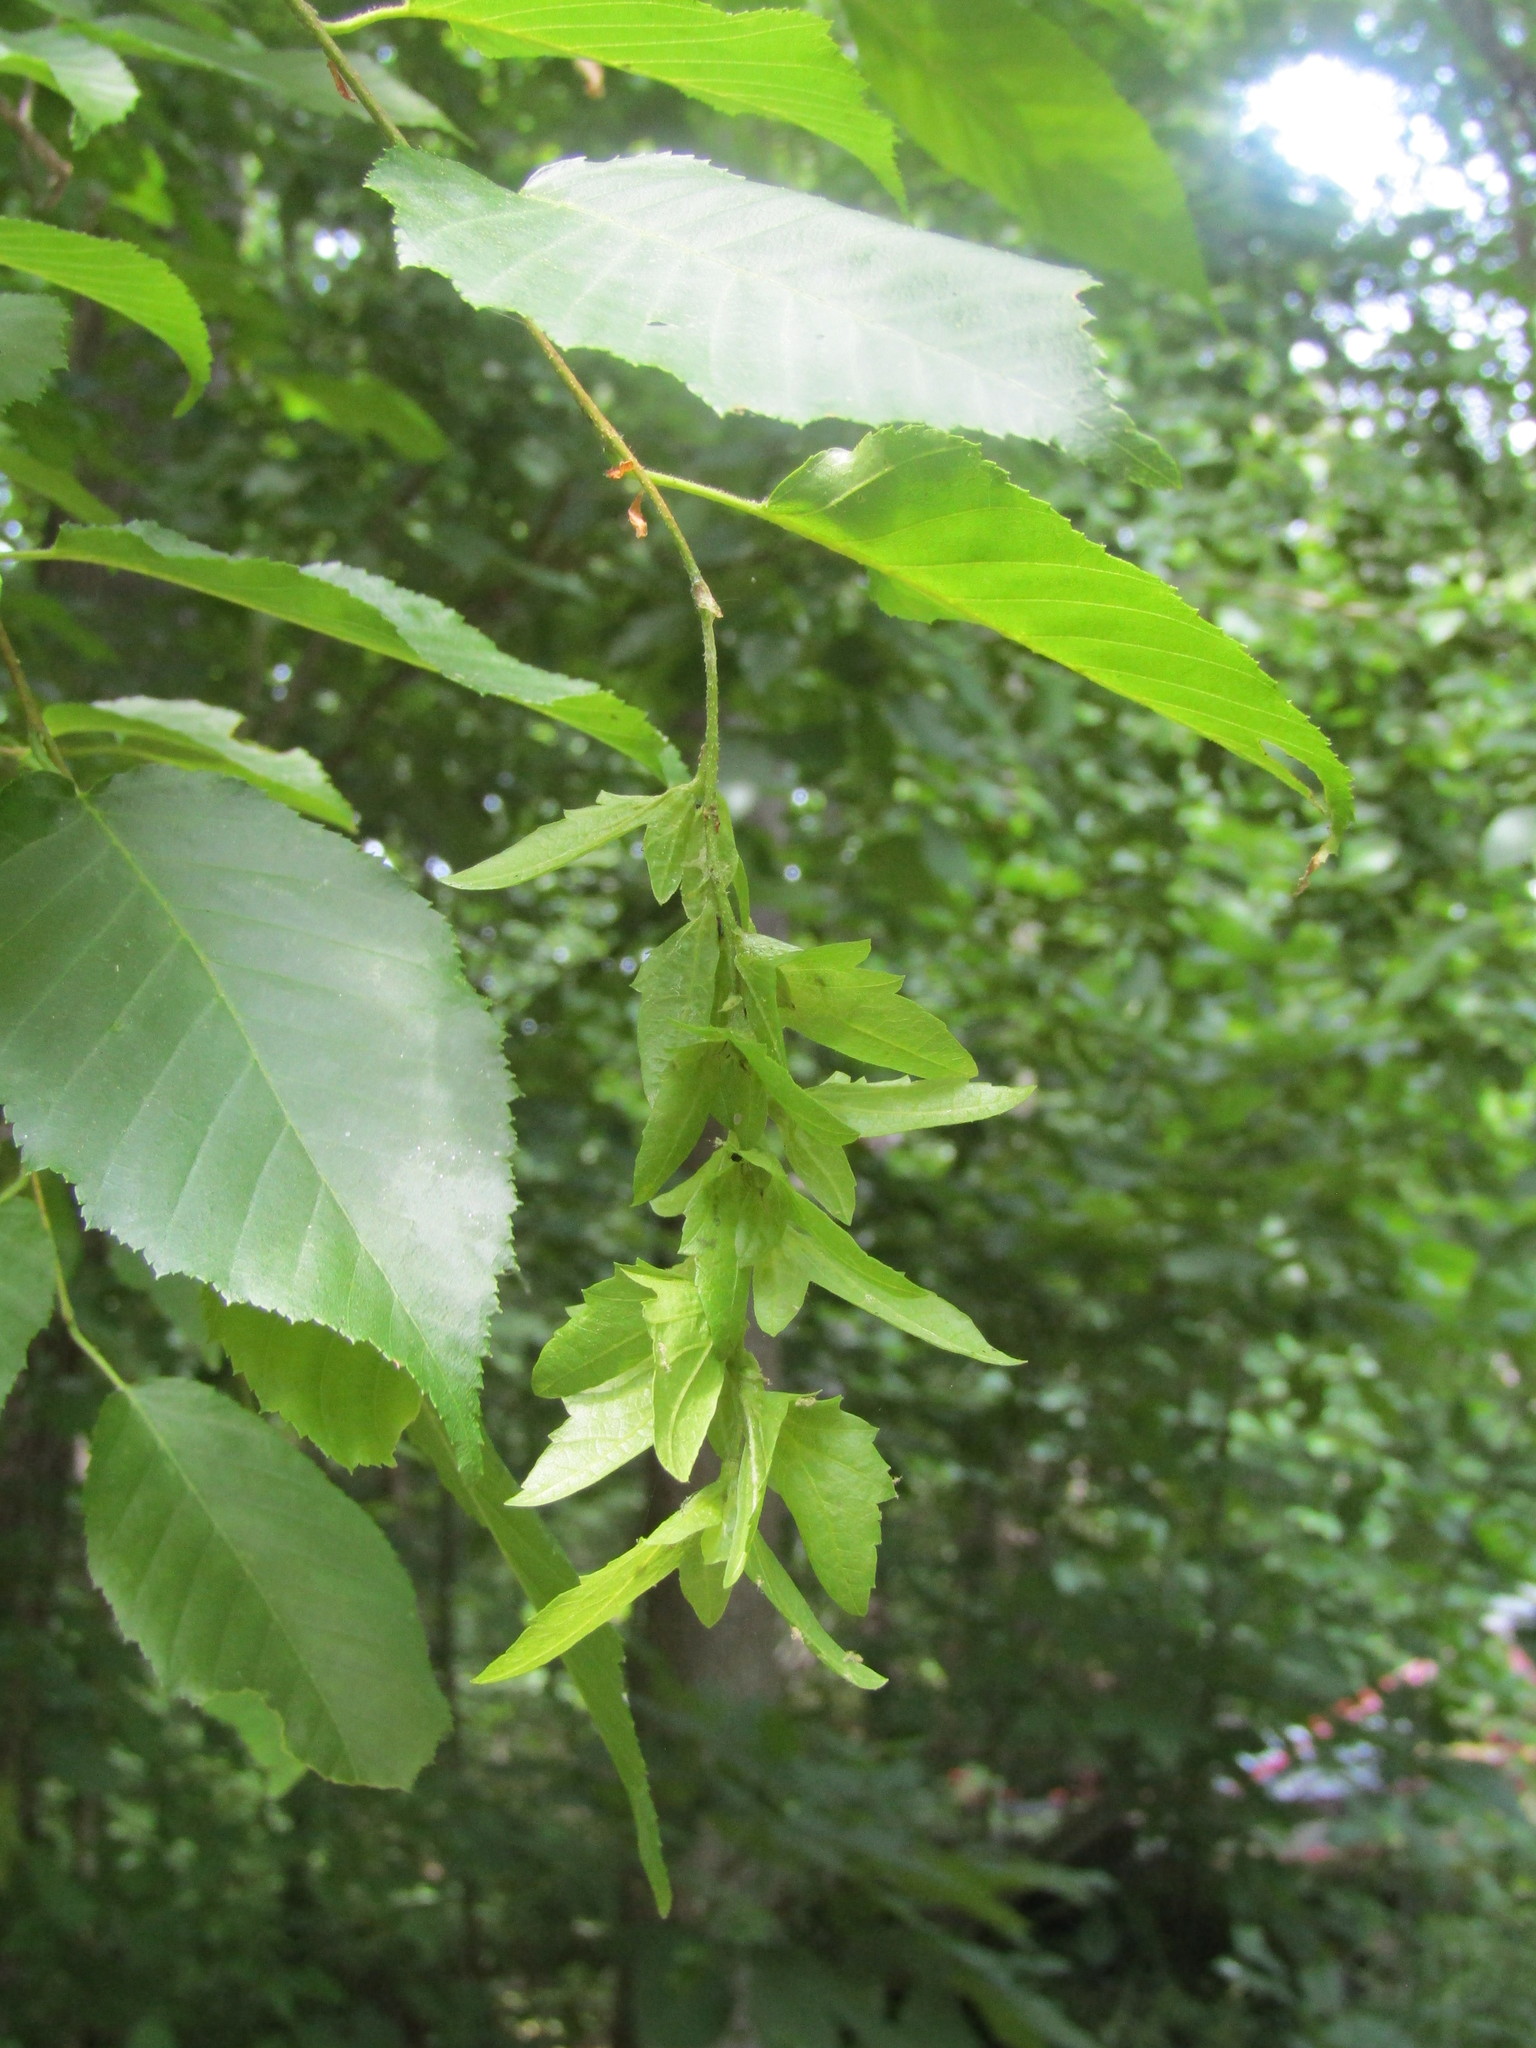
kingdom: Plantae
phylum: Tracheophyta
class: Magnoliopsida
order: Fagales
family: Betulaceae
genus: Carpinus
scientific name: Carpinus caroliniana
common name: American hornbeam
